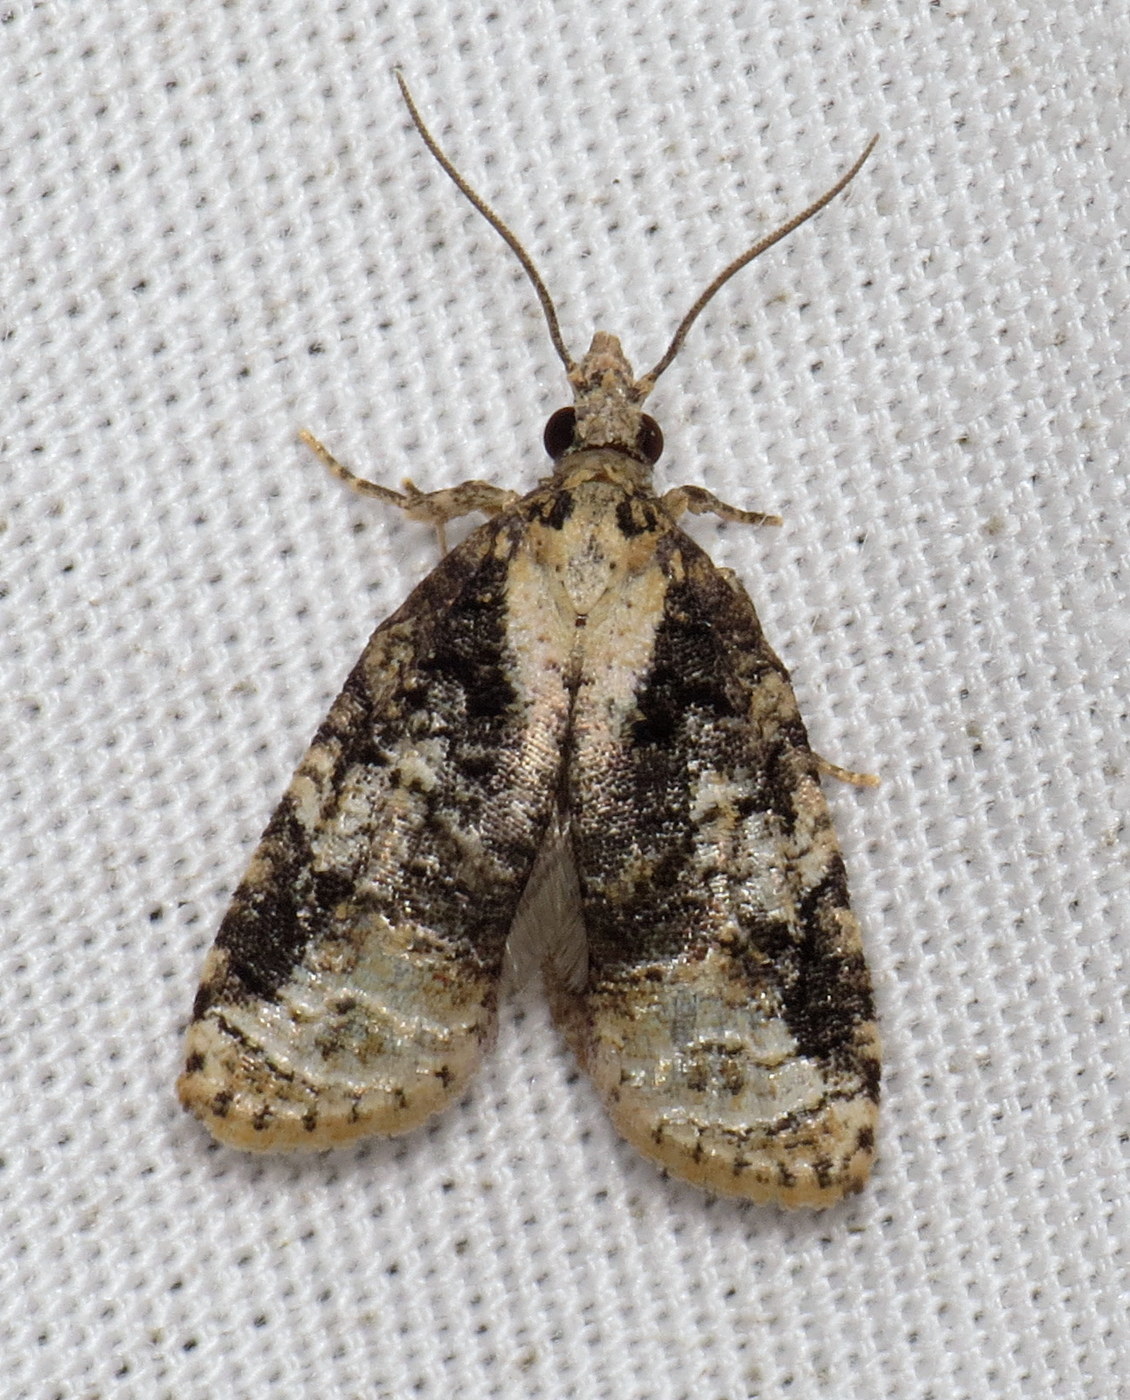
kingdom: Animalia
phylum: Arthropoda
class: Insecta
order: Lepidoptera
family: Tortricidae
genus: Platynota
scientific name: Platynota exasperatana
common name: Exasperating platynota moth
